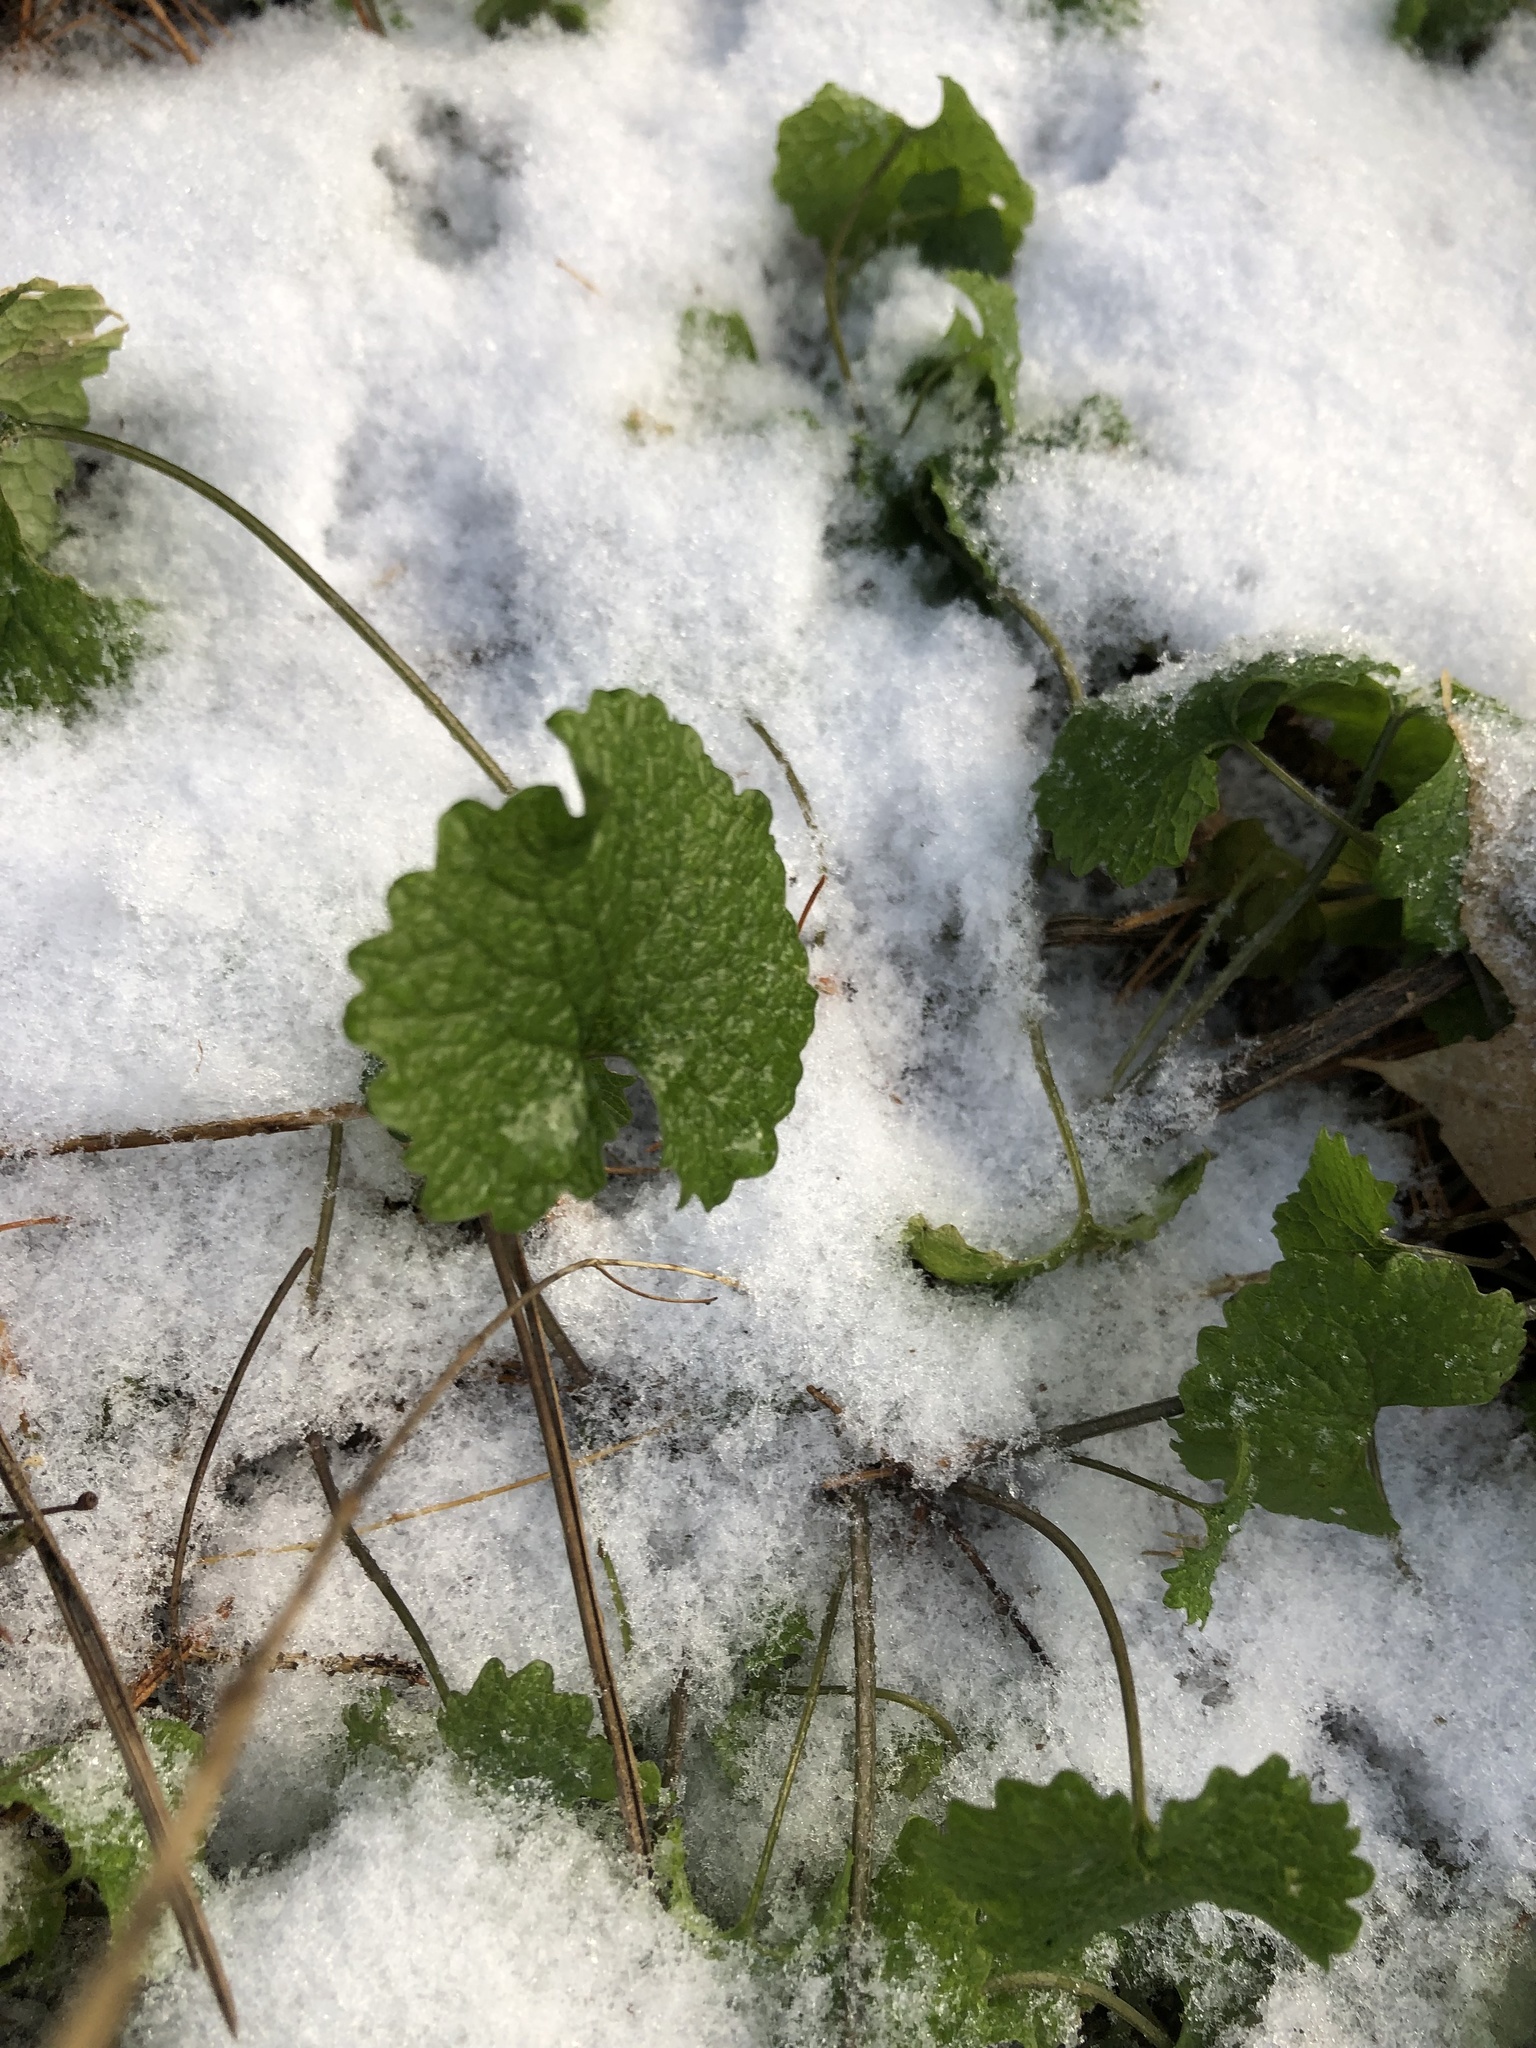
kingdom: Plantae
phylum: Tracheophyta
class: Magnoliopsida
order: Brassicales
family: Brassicaceae
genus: Alliaria
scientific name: Alliaria petiolata
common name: Garlic mustard
